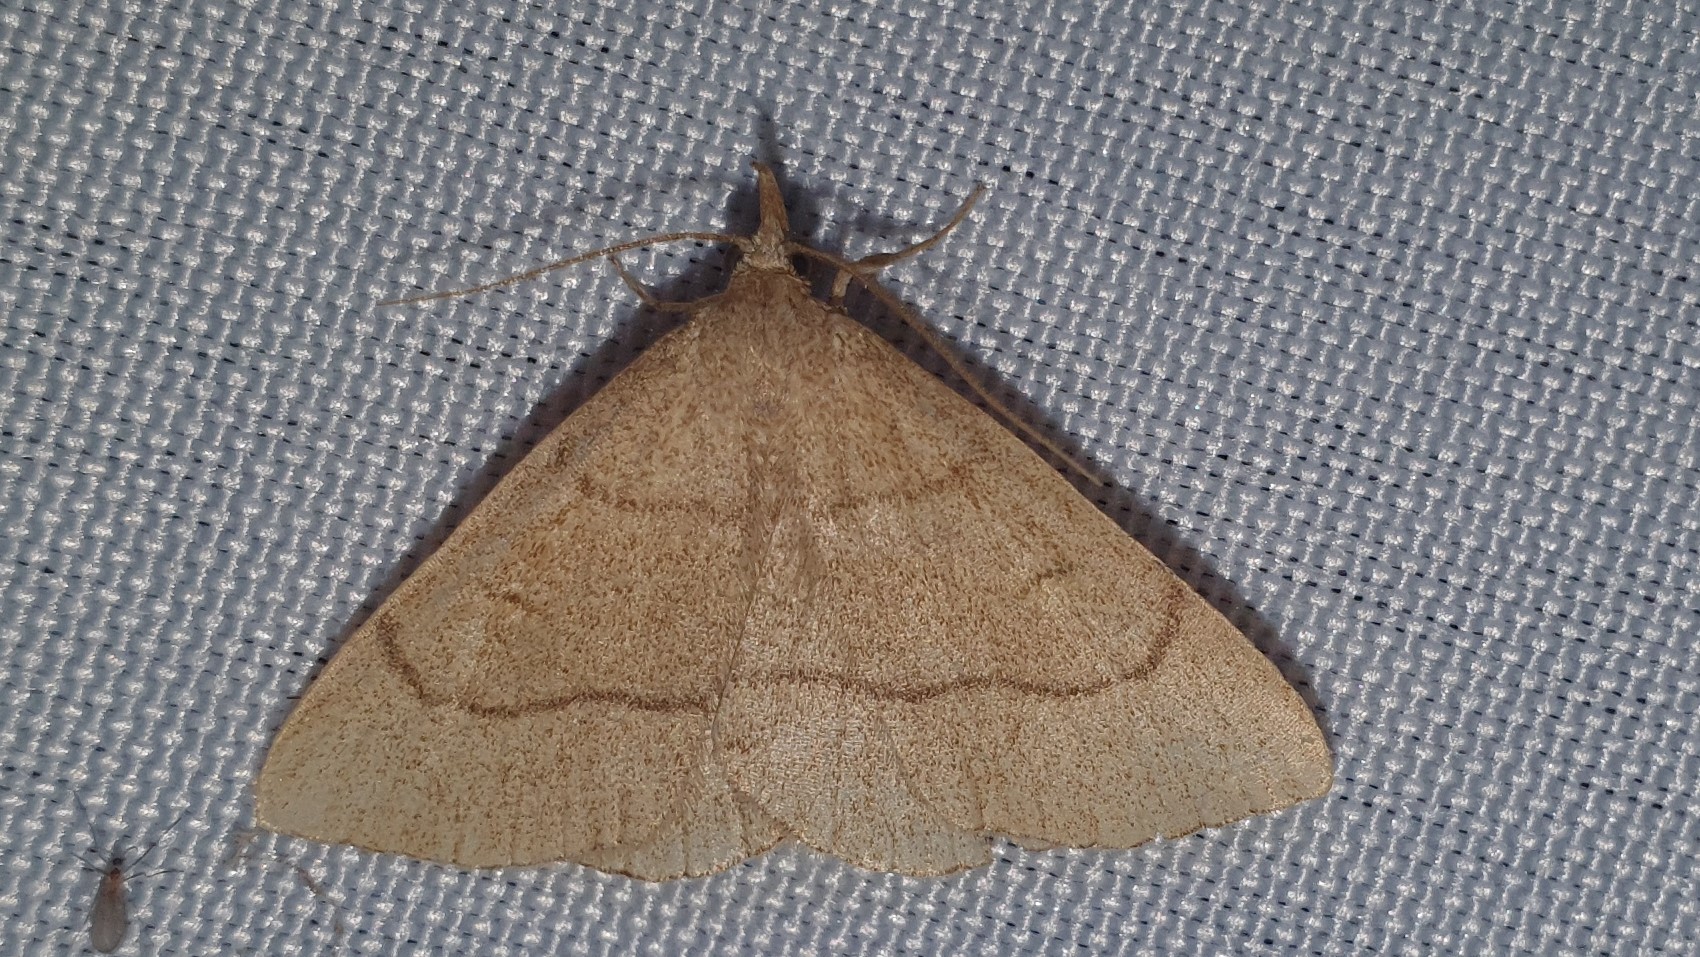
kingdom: Animalia
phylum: Arthropoda
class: Insecta
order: Lepidoptera
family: Erebidae
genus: Paracolax
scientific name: Paracolax tristalis
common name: Clay fan-foot
